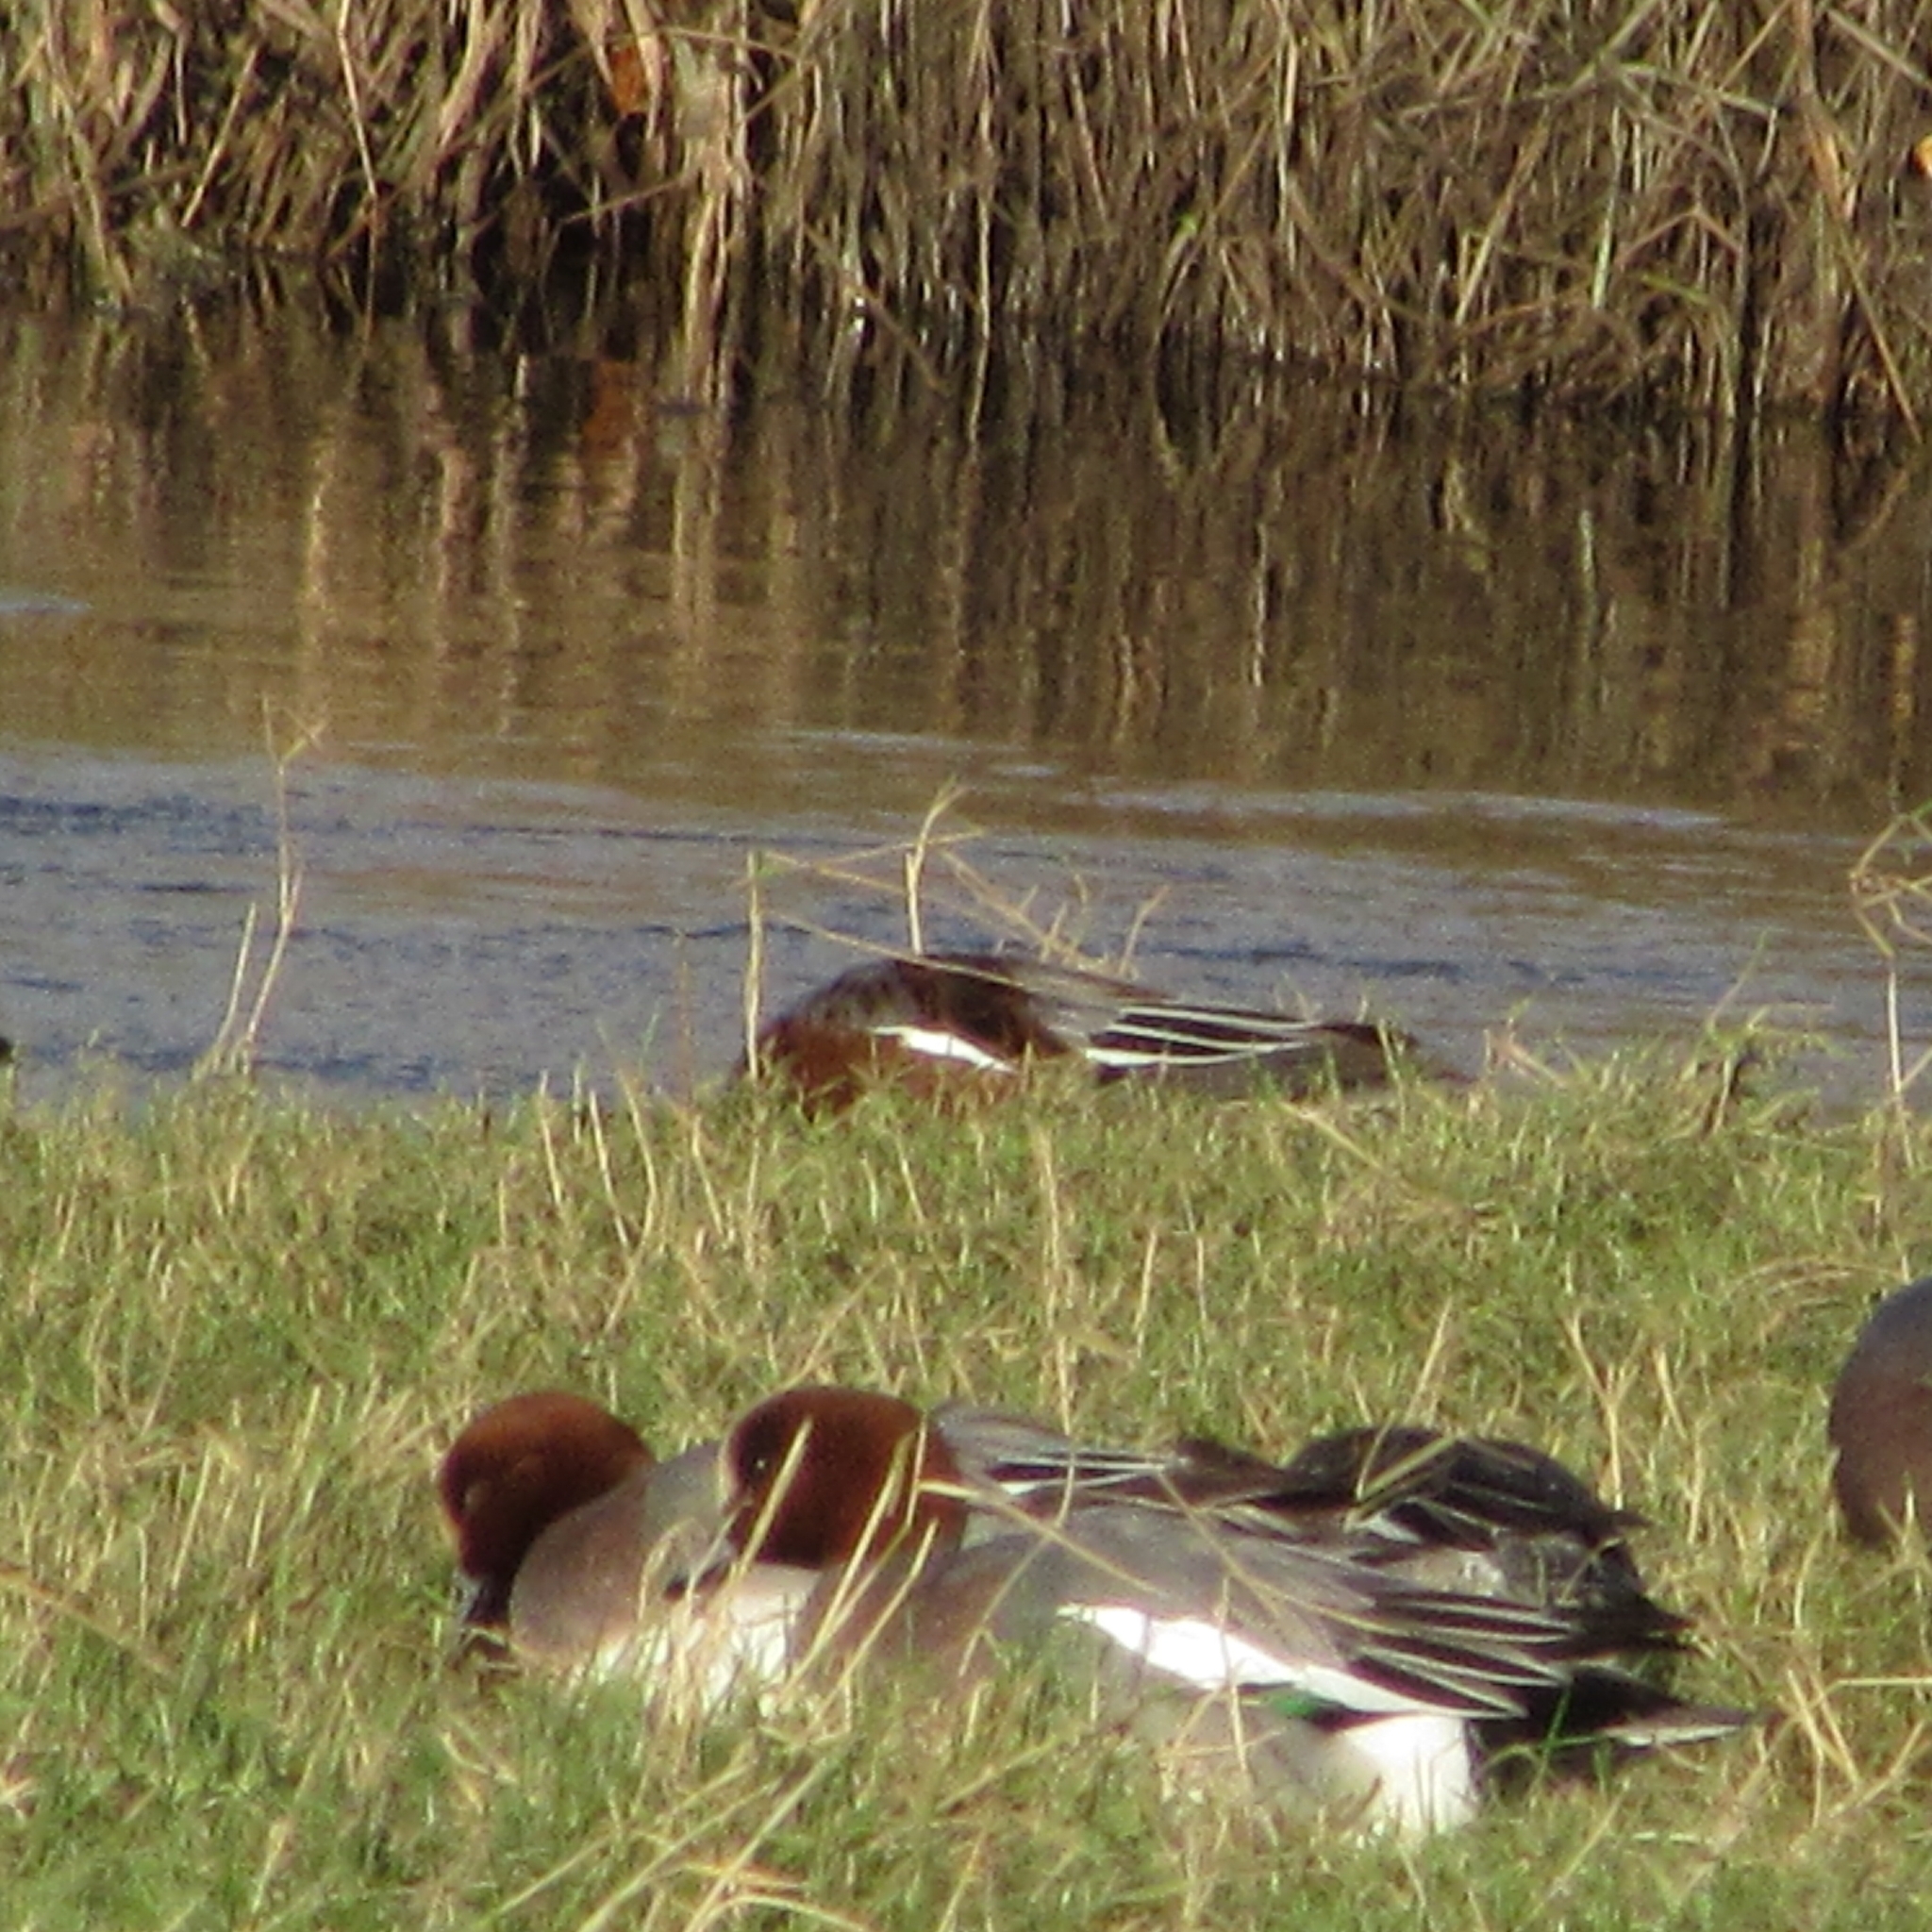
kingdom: Animalia
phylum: Chordata
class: Aves
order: Anseriformes
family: Anatidae
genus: Mareca
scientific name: Mareca penelope
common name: Eurasian wigeon
